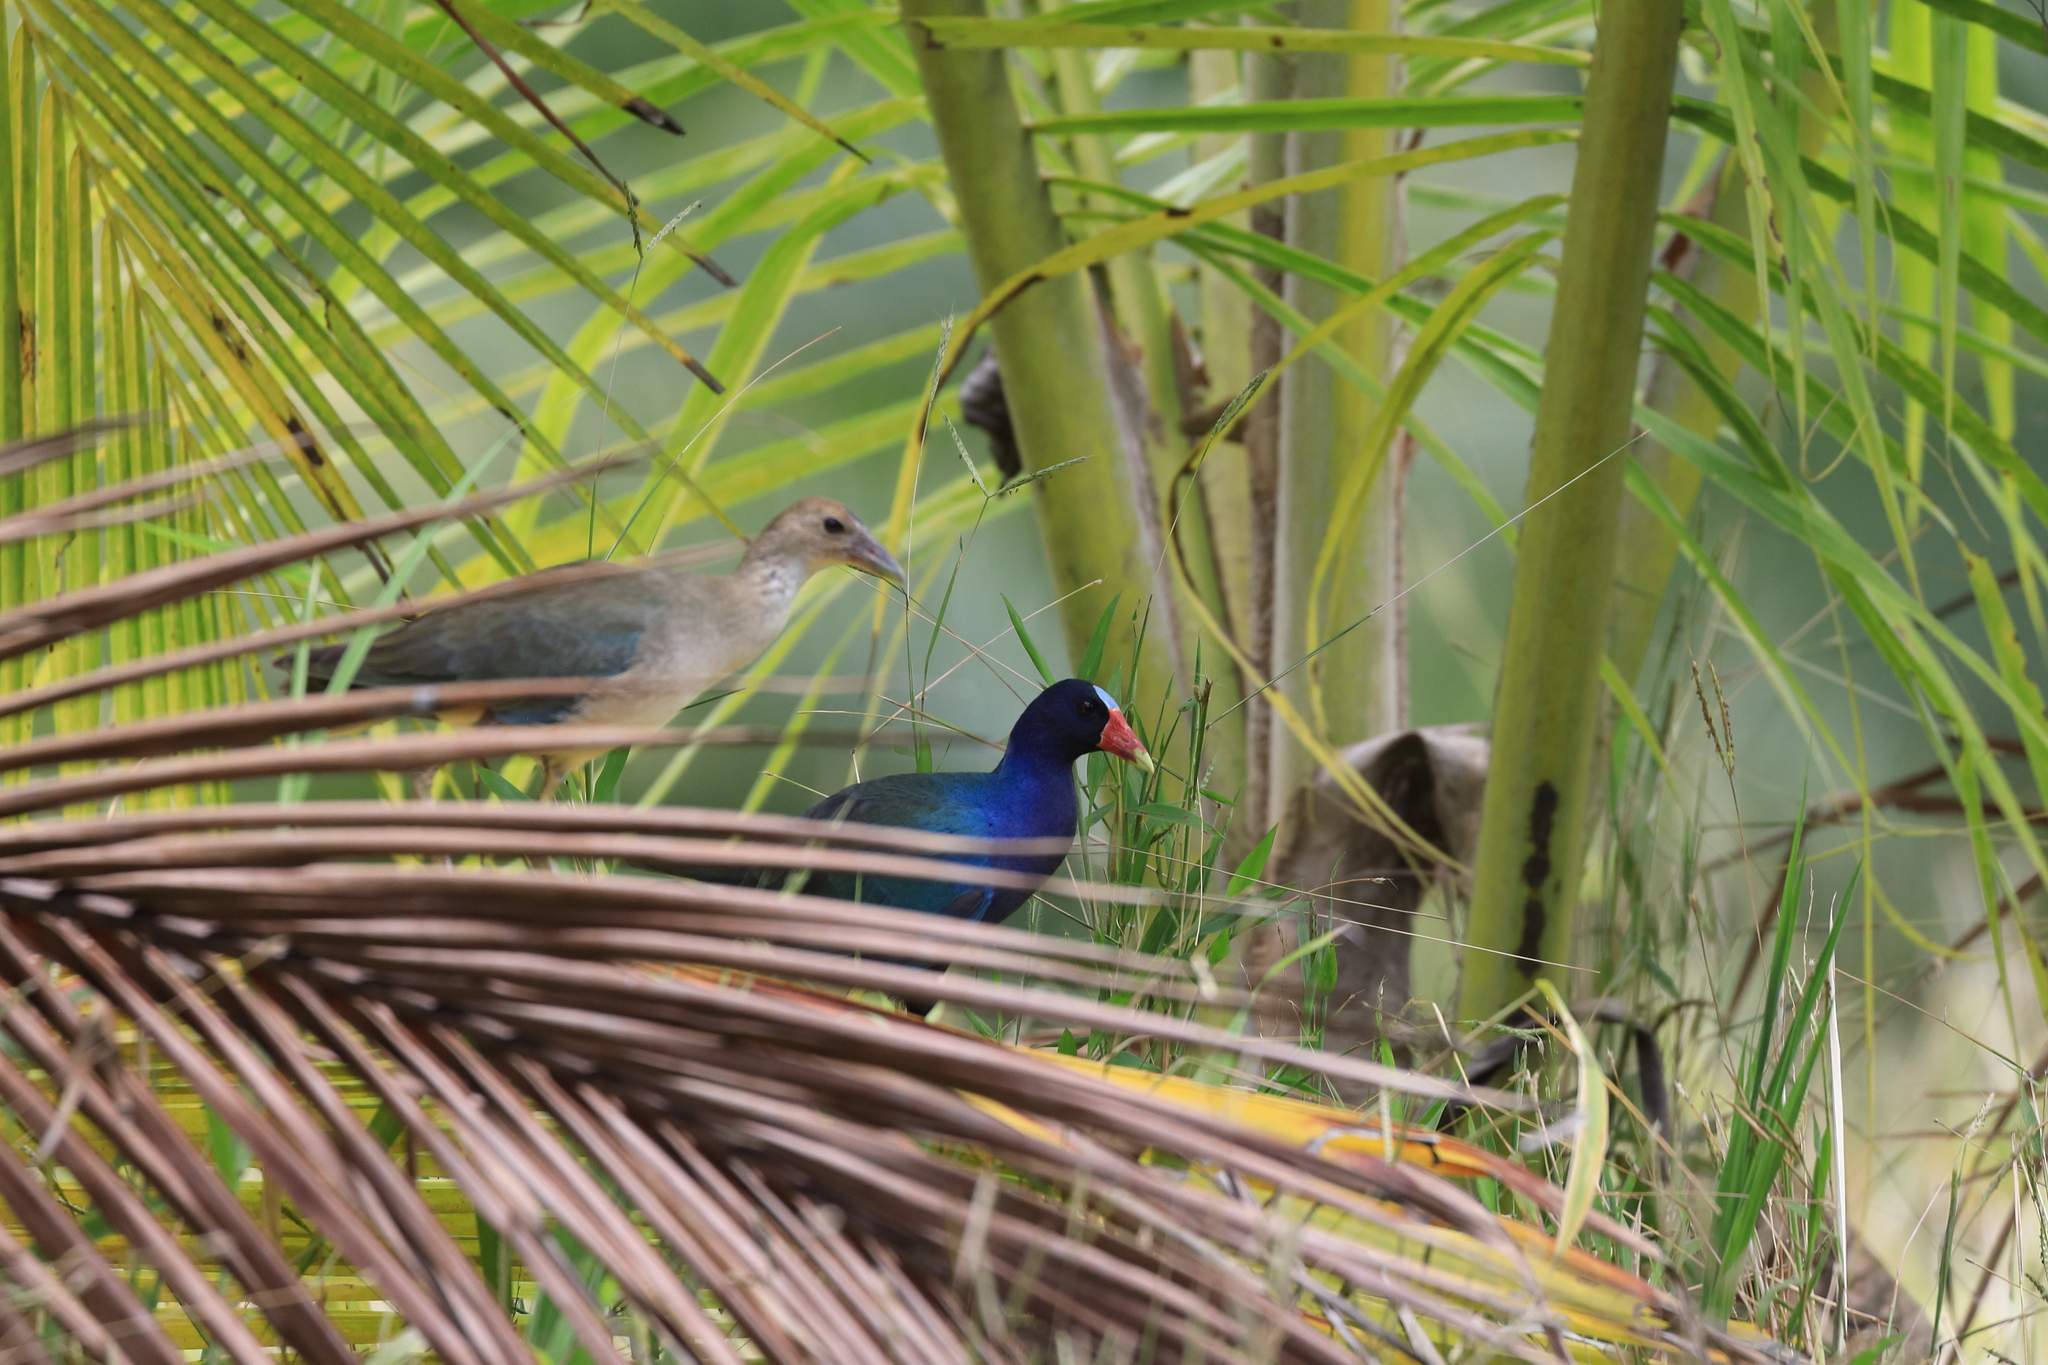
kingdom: Animalia
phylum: Chordata
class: Aves
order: Gruiformes
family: Rallidae
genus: Porphyrio
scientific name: Porphyrio martinica
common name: Purple gallinule
